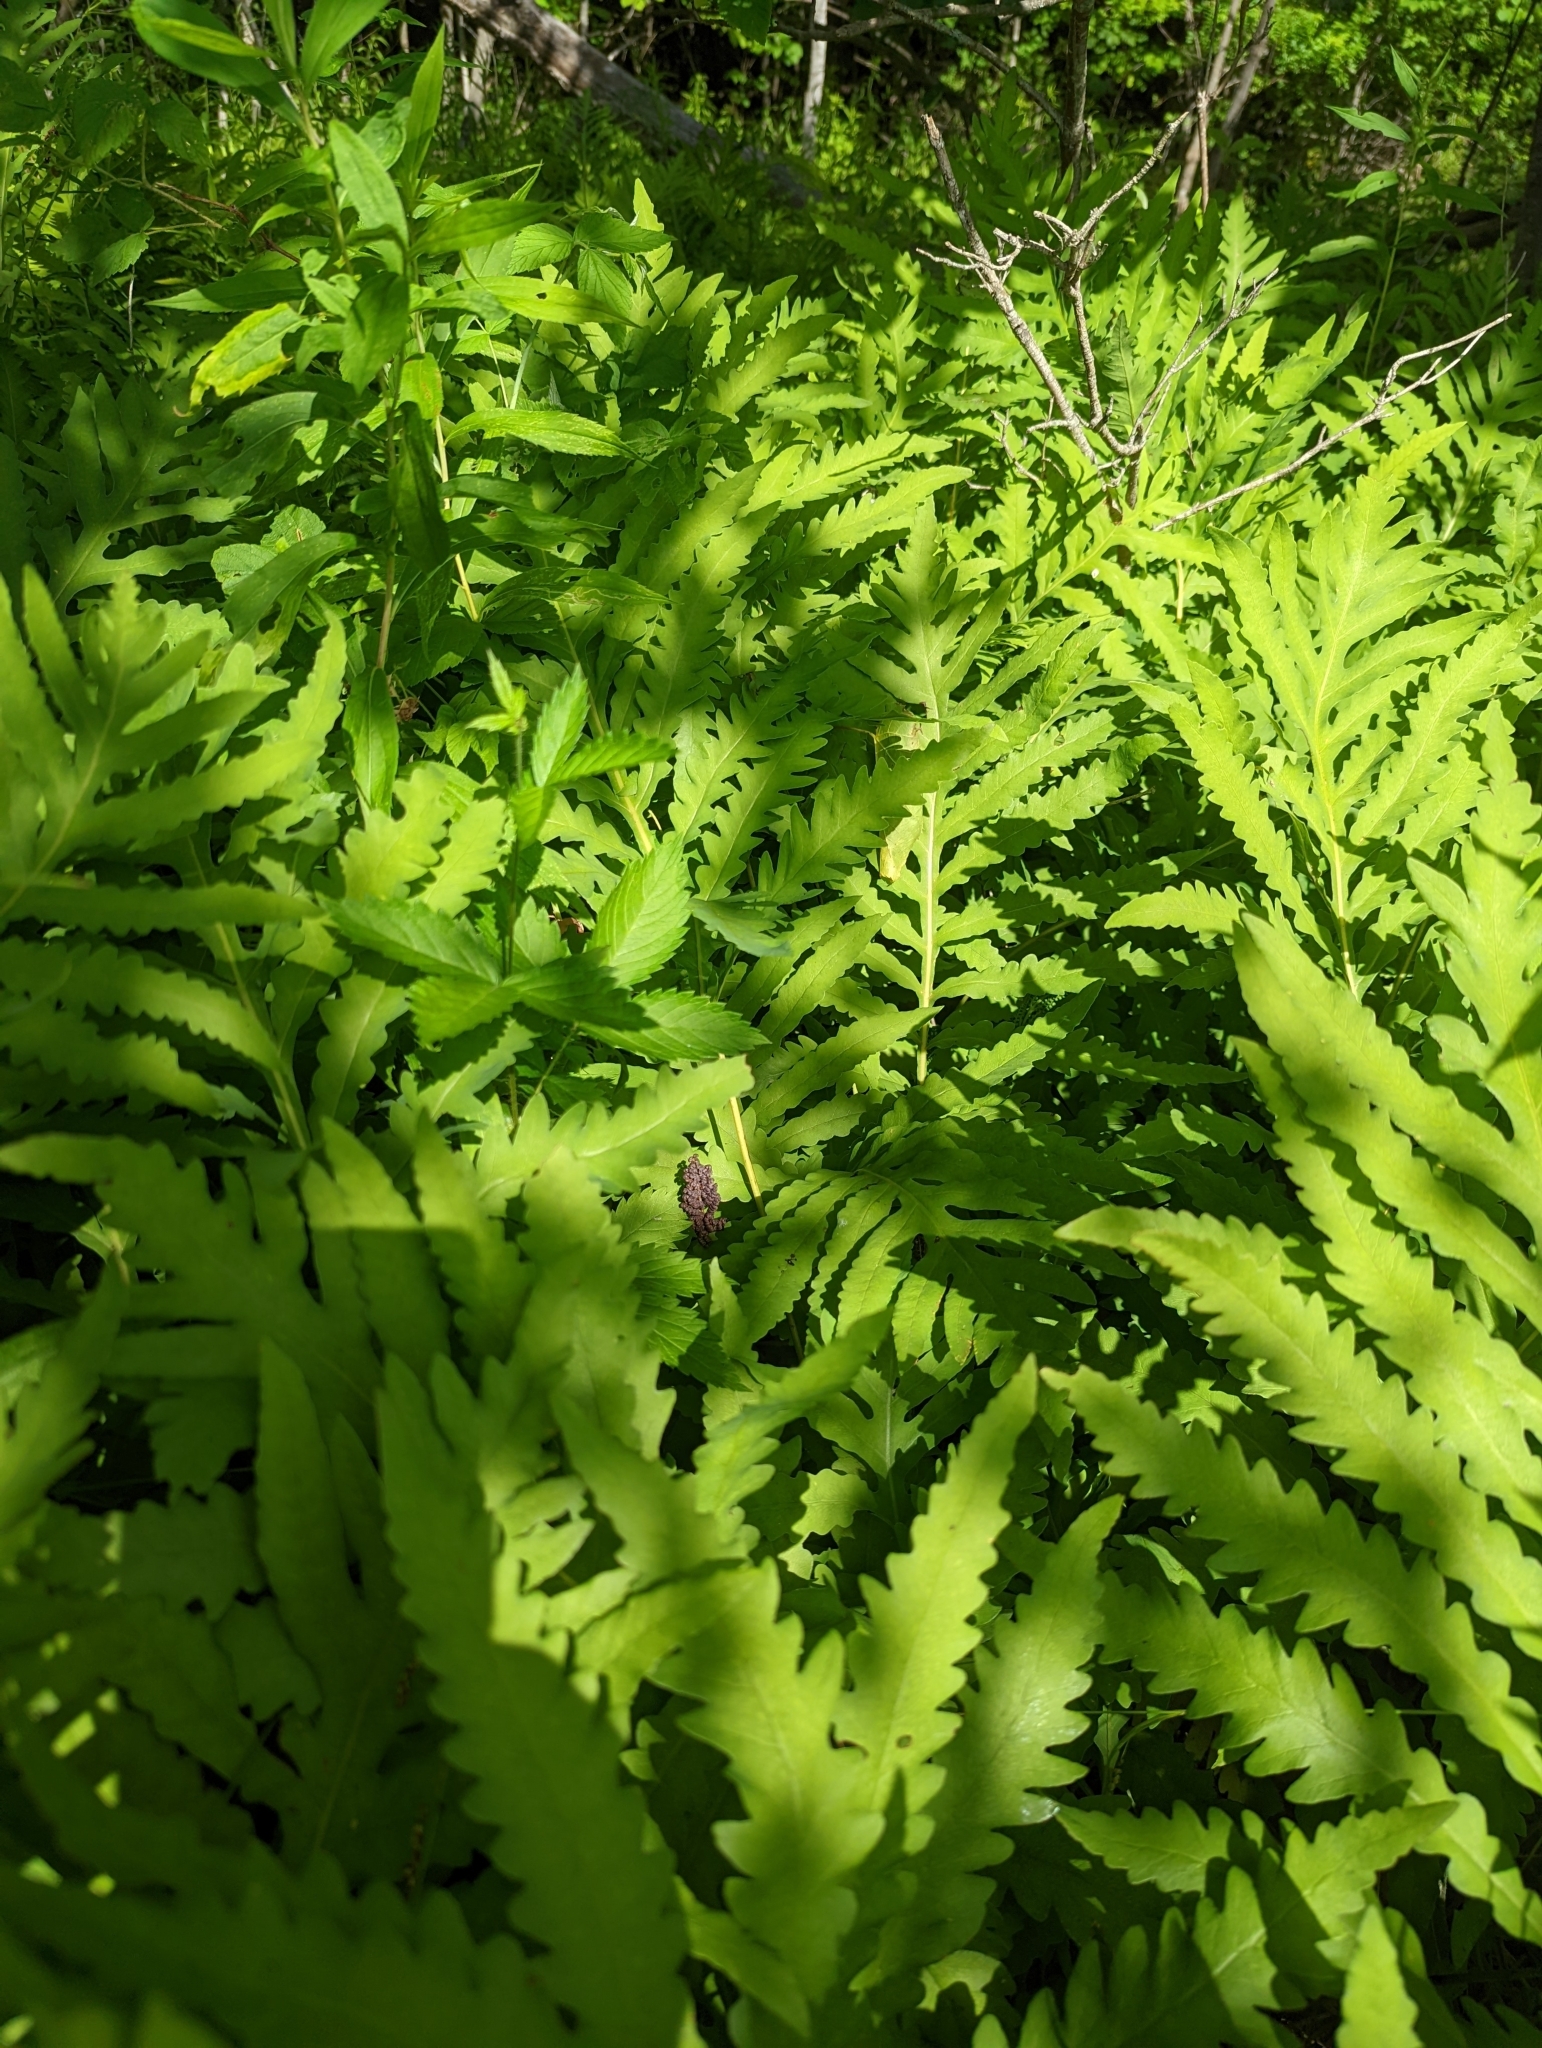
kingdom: Plantae
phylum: Tracheophyta
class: Polypodiopsida
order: Polypodiales
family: Onocleaceae
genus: Onoclea
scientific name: Onoclea sensibilis
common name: Sensitive fern
